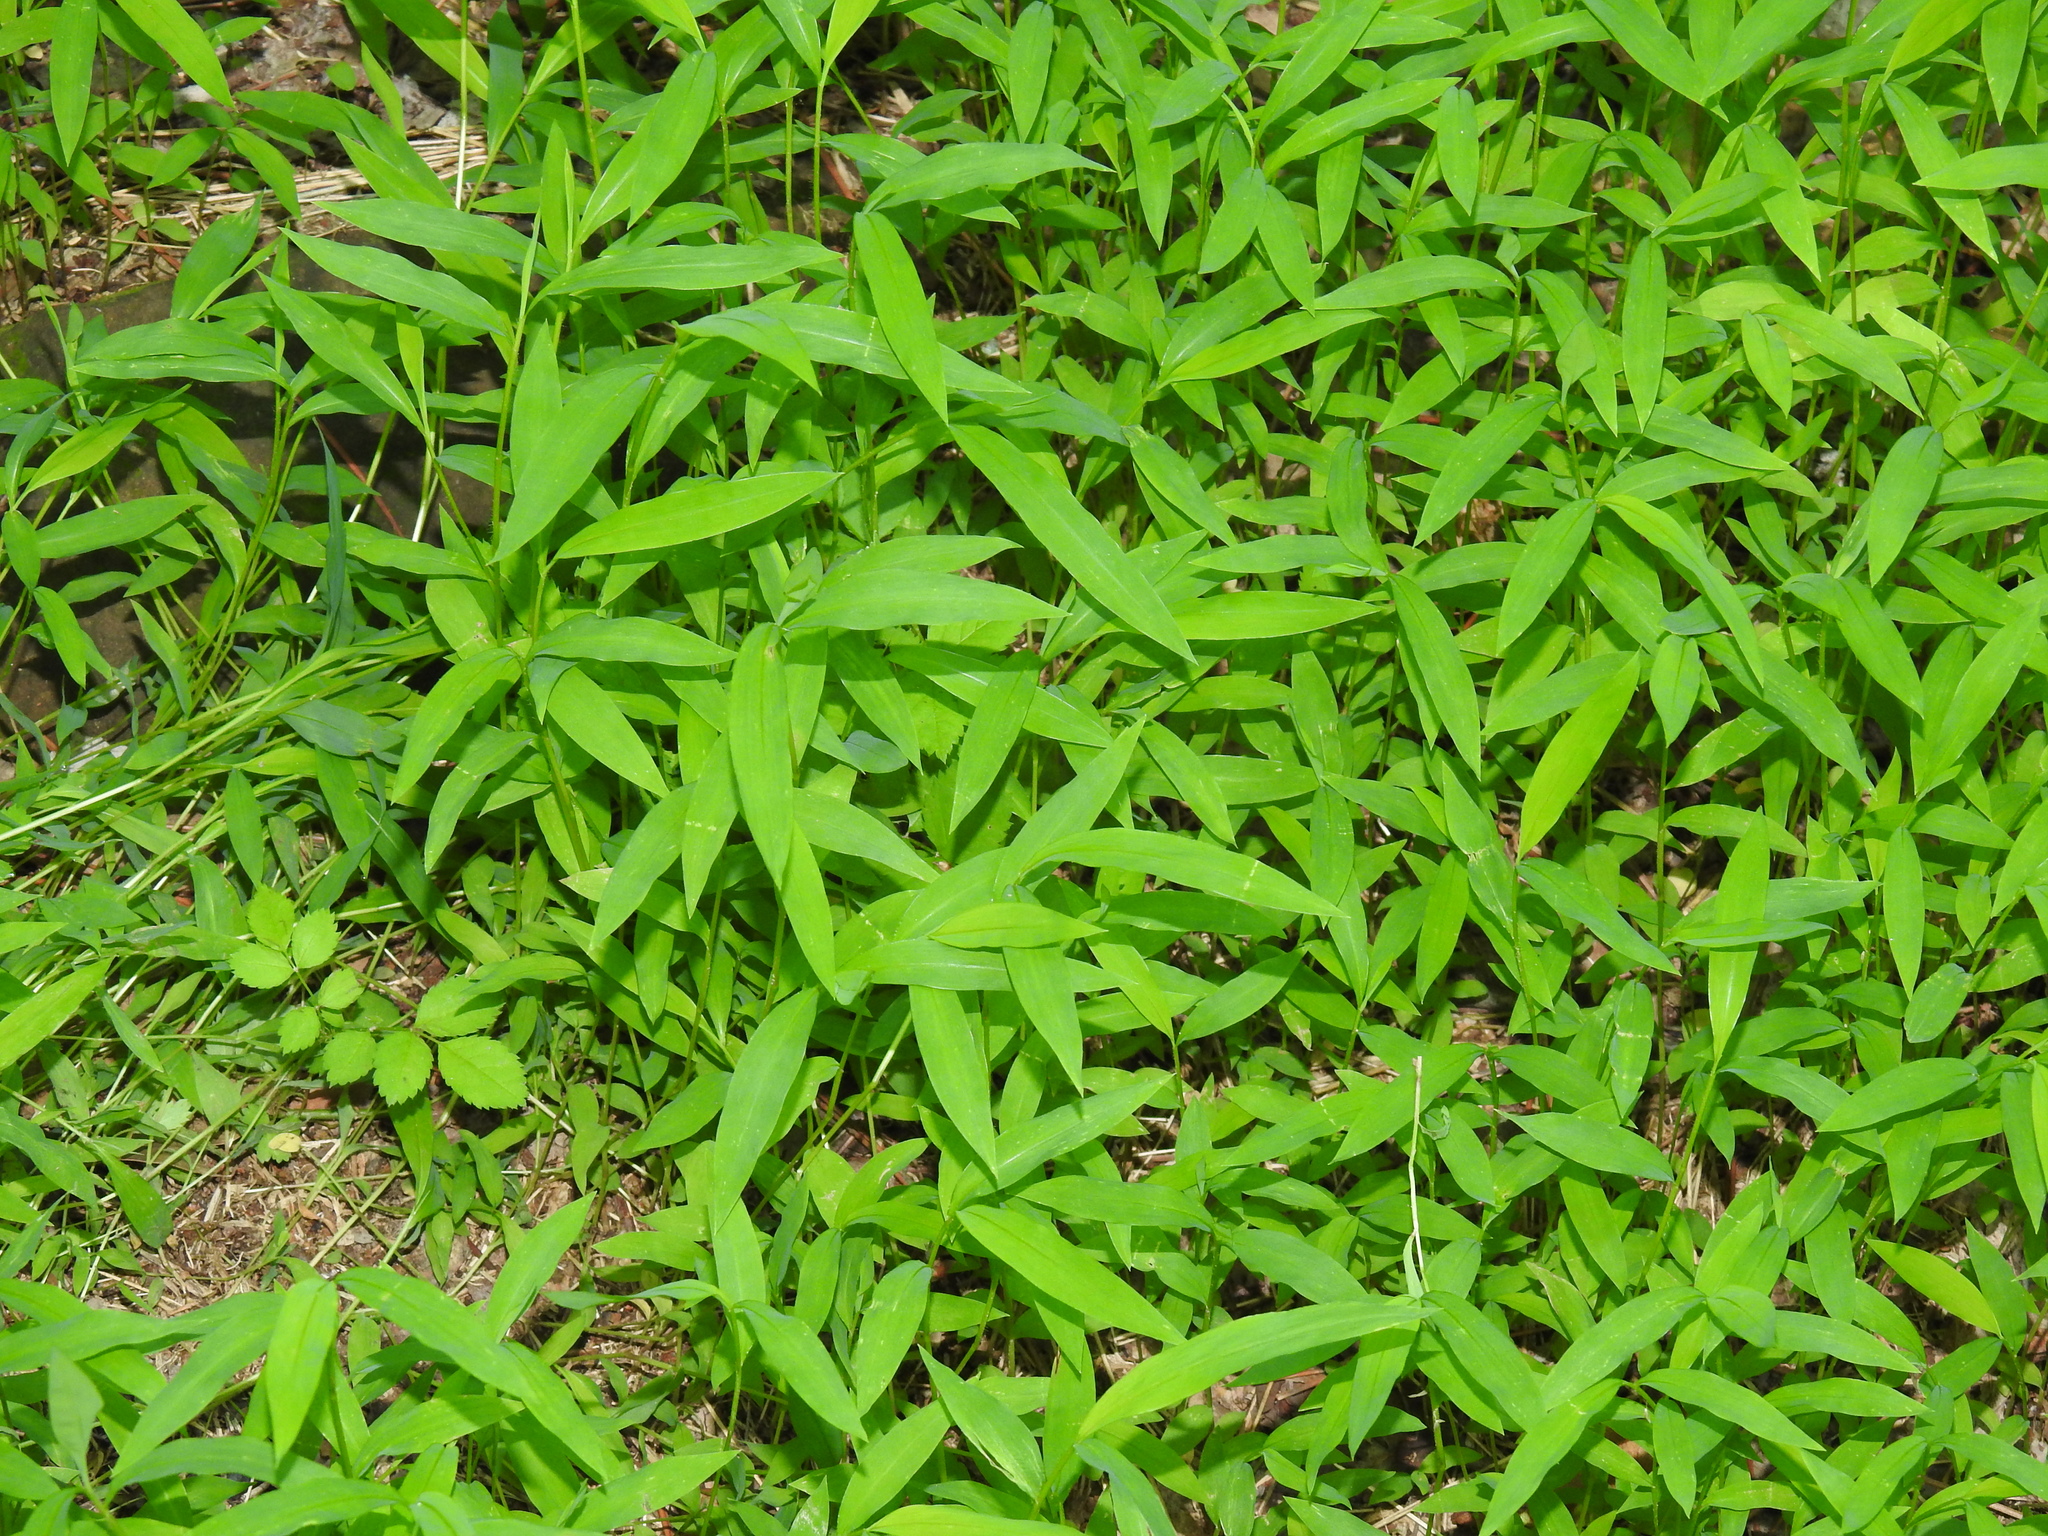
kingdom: Plantae
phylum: Tracheophyta
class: Liliopsida
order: Poales
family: Poaceae
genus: Microstegium
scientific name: Microstegium vimineum
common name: Japanese stiltgrass
